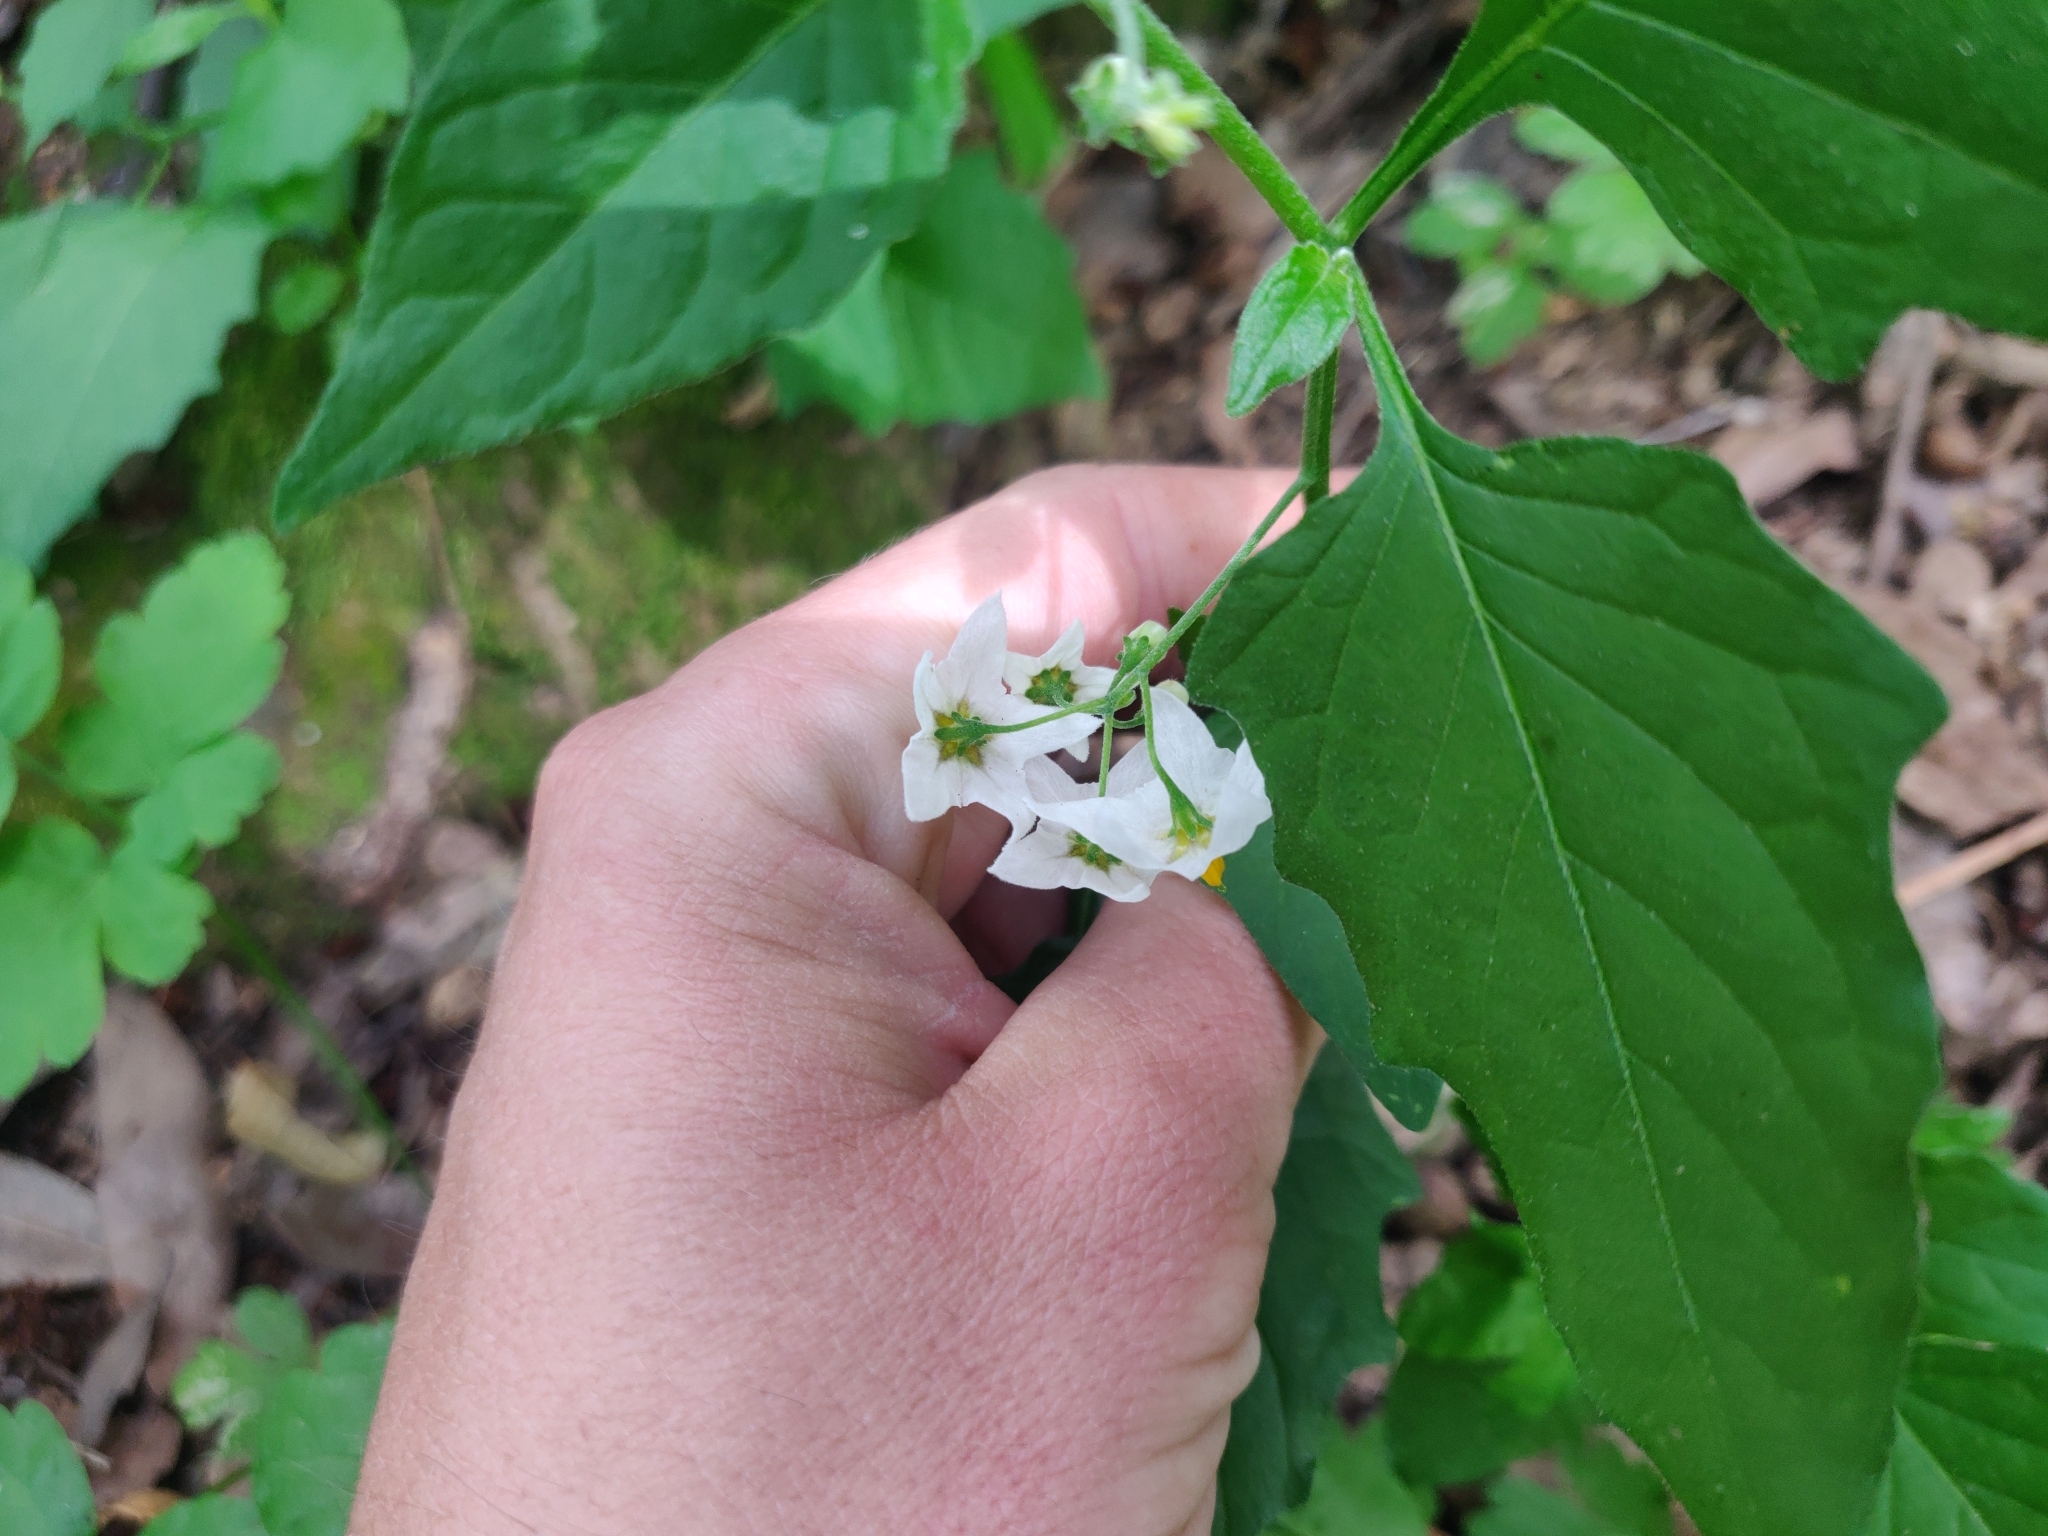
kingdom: Plantae
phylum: Tracheophyta
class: Magnoliopsida
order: Solanales
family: Solanaceae
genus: Solanum
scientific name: Solanum furcatum
